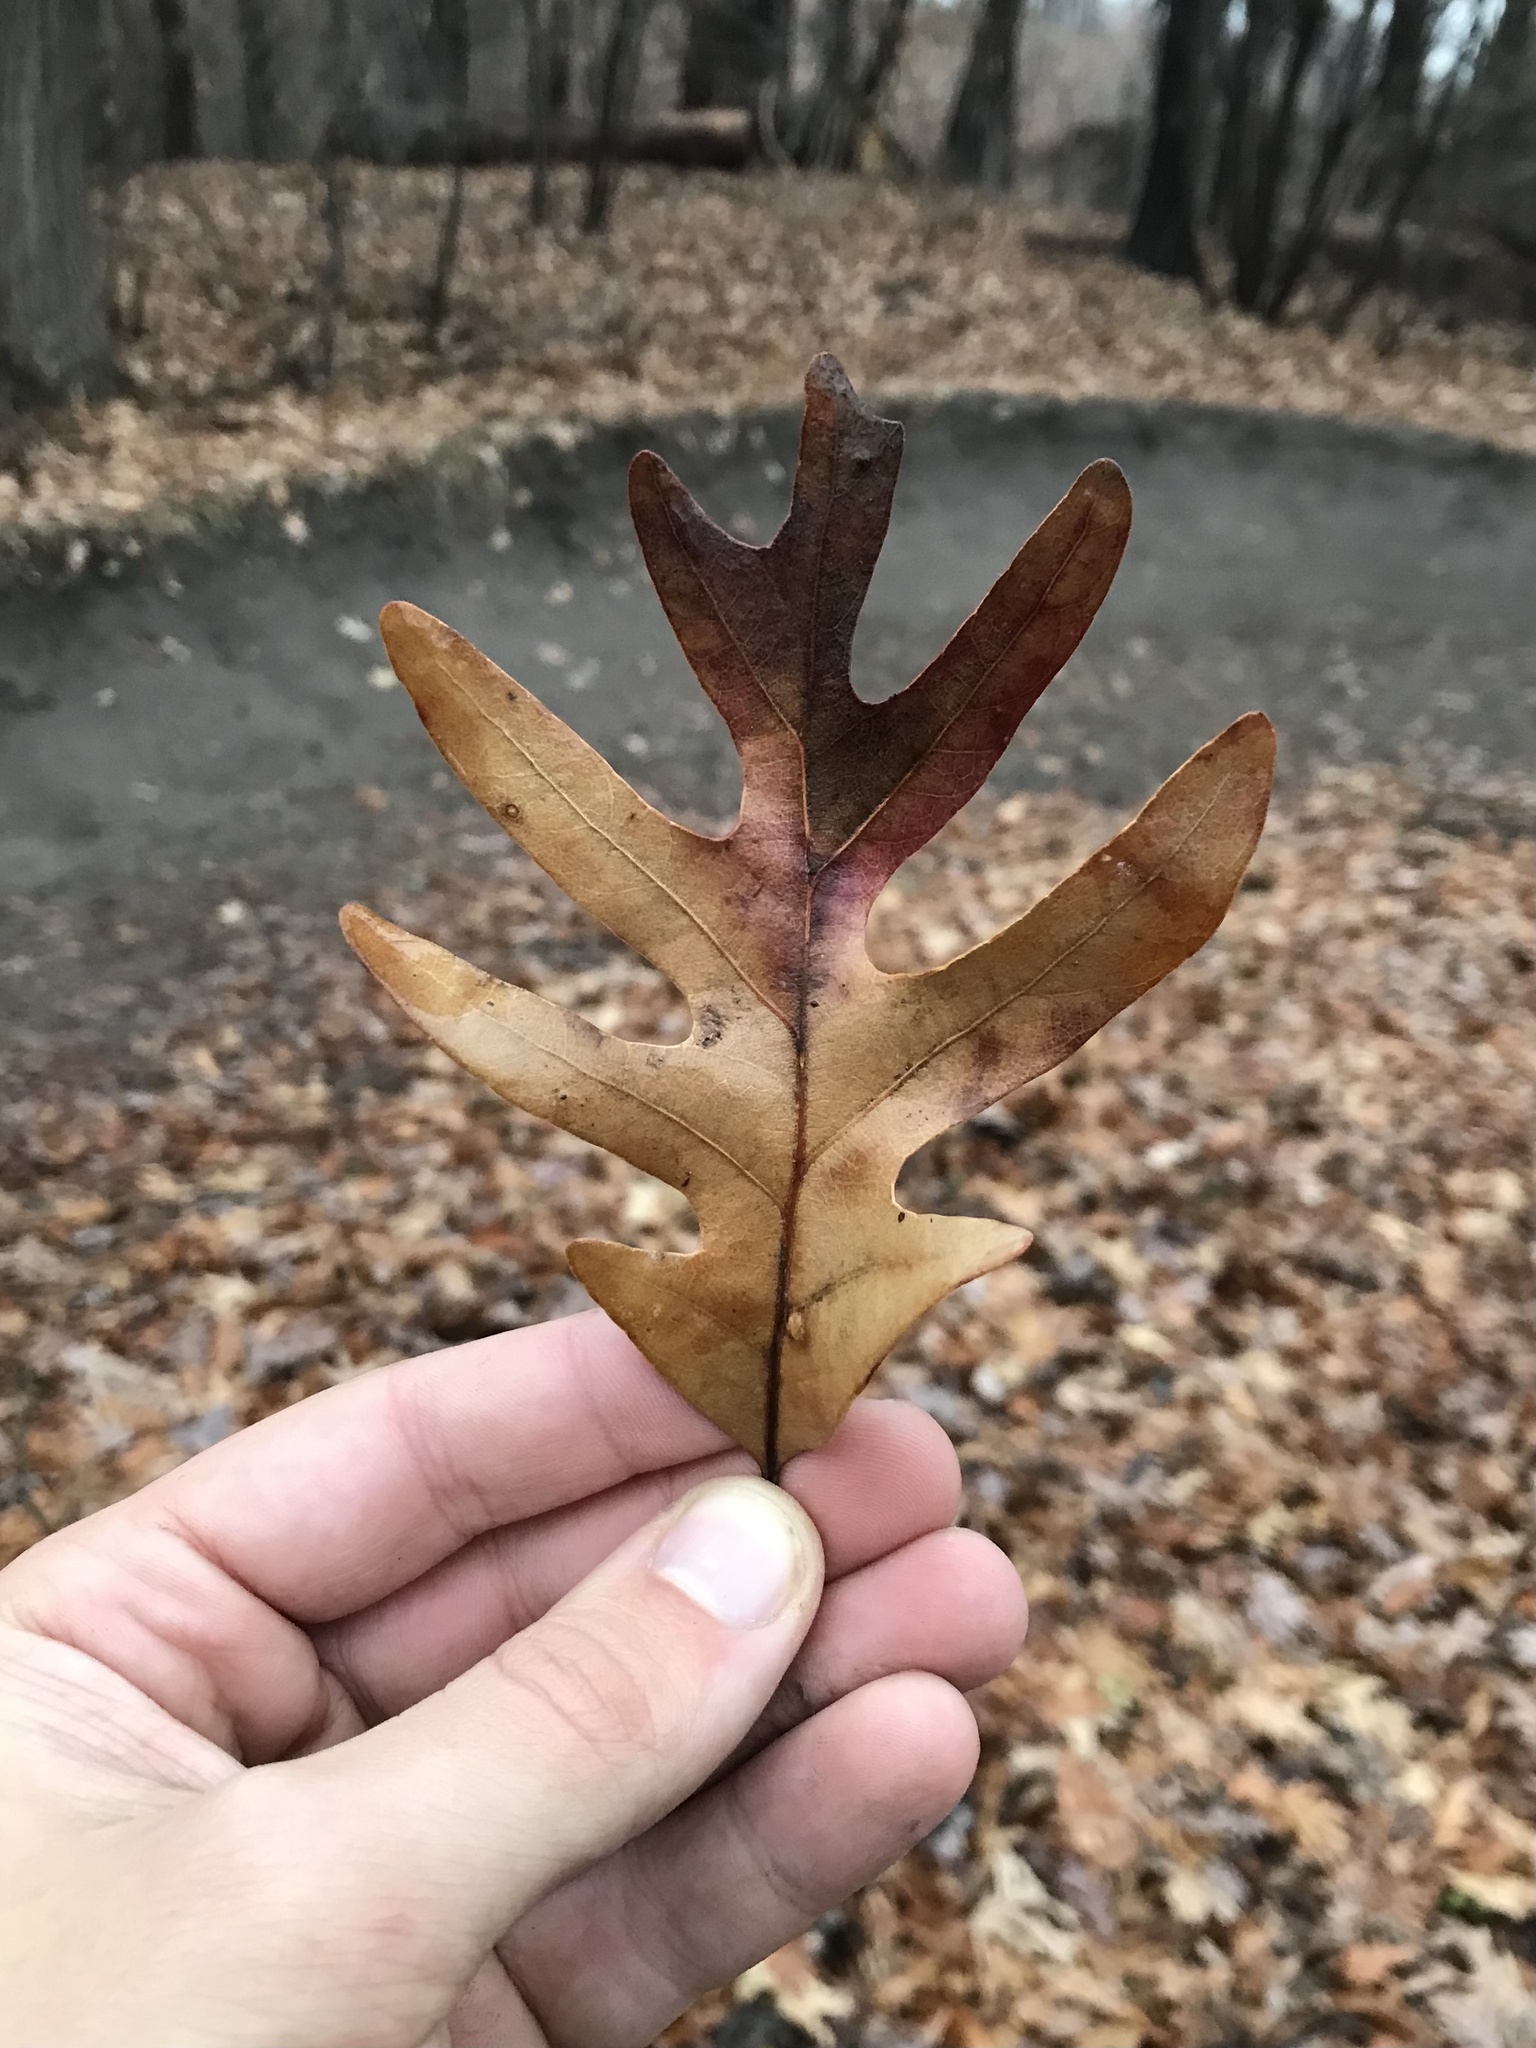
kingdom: Plantae
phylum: Tracheophyta
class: Magnoliopsida
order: Fagales
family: Fagaceae
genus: Quercus
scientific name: Quercus alba
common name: White oak
